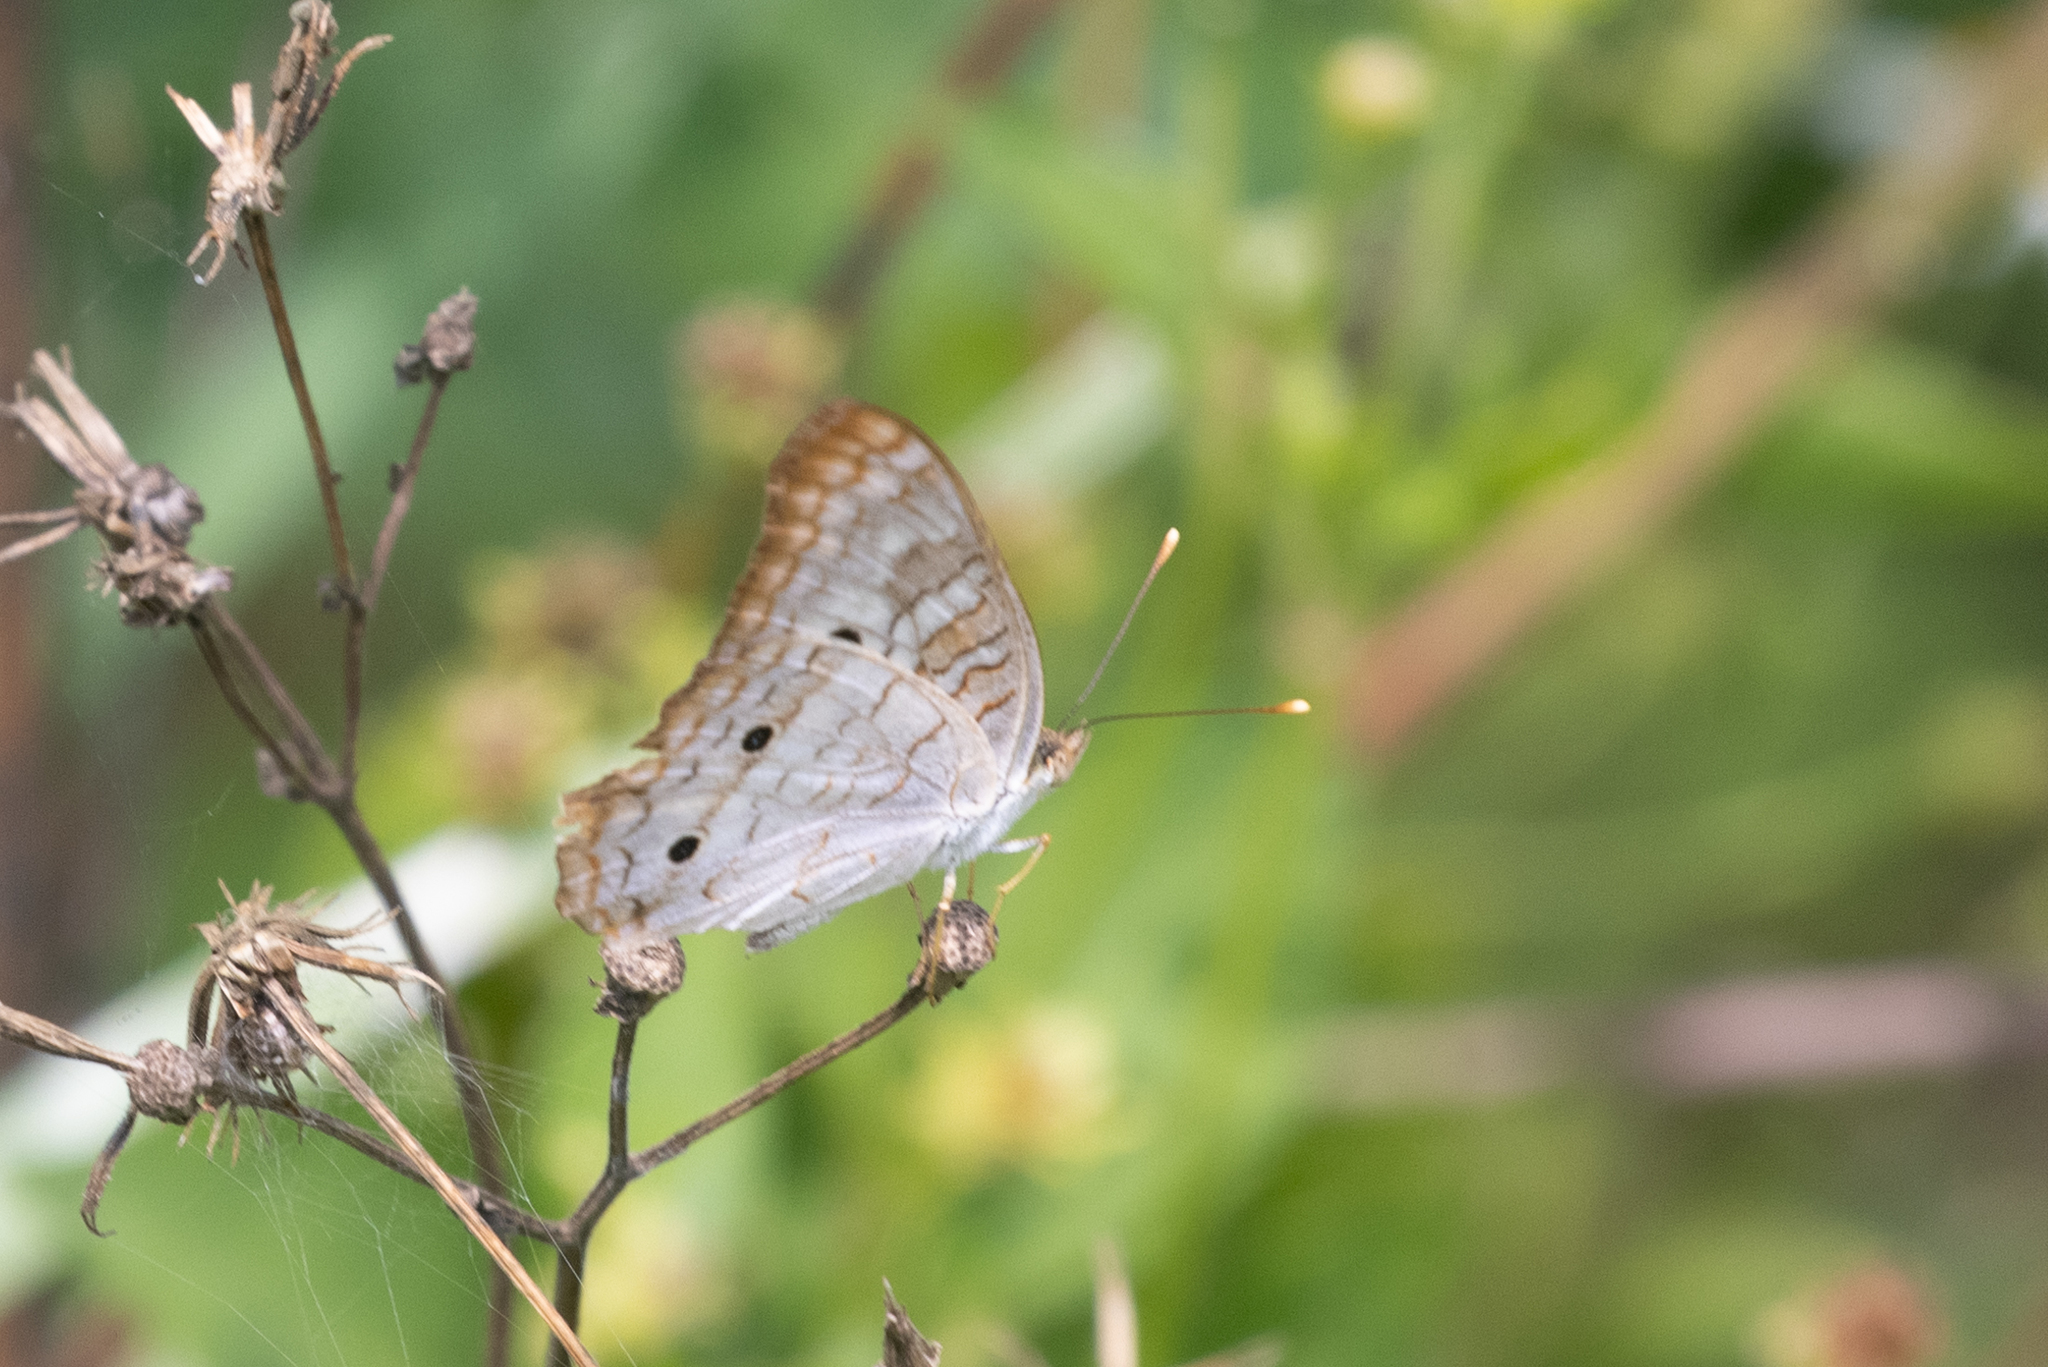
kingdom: Animalia
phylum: Arthropoda
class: Insecta
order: Lepidoptera
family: Nymphalidae
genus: Anartia
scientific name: Anartia jatrophae
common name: White peacock
